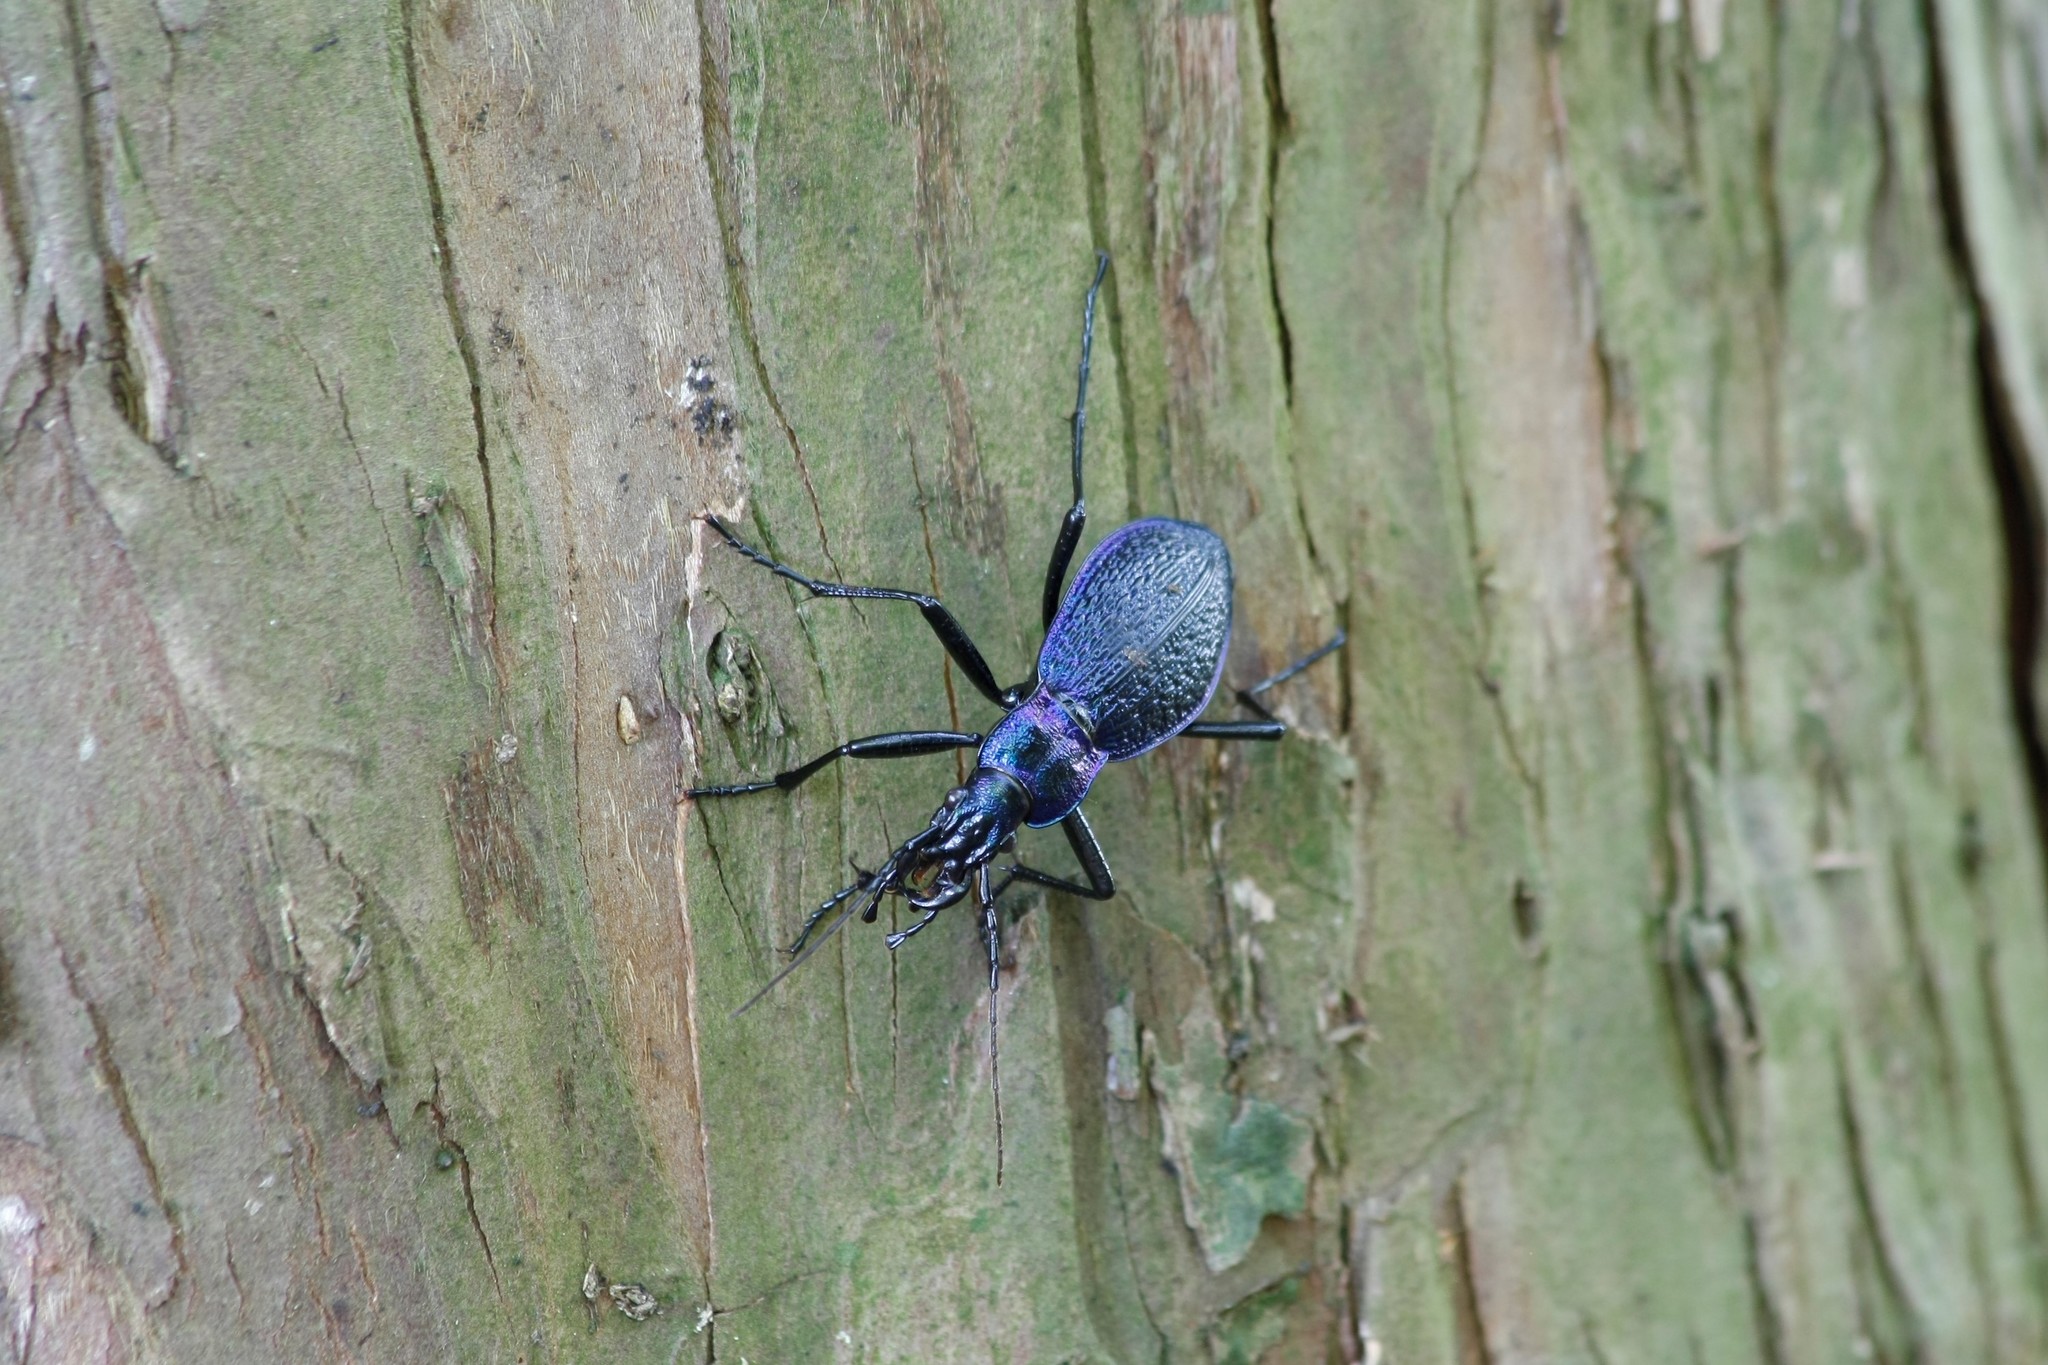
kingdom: Animalia
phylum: Arthropoda
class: Insecta
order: Coleoptera
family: Carabidae
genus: Carabus
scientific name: Carabus intricatus
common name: Blue ground beetle
